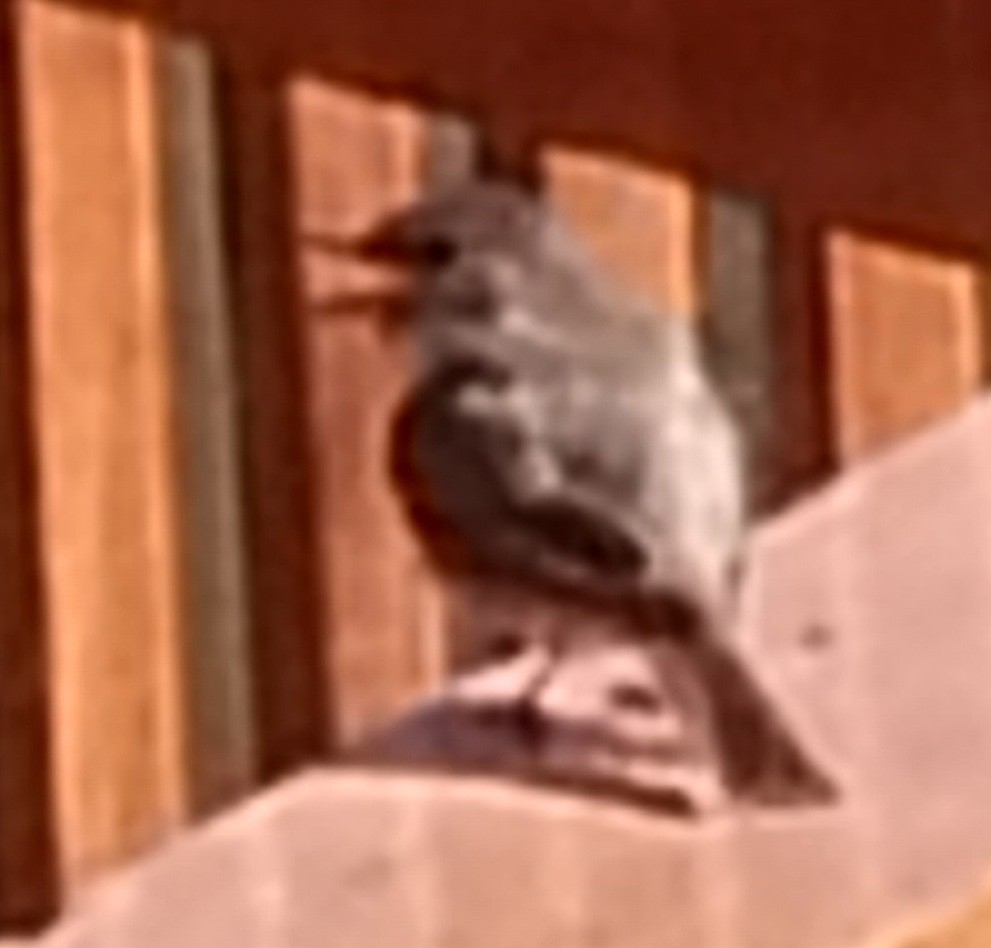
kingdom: Animalia
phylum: Chordata
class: Aves
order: Passeriformes
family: Tyrannidae
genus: Sayornis
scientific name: Sayornis phoebe
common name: Eastern phoebe
